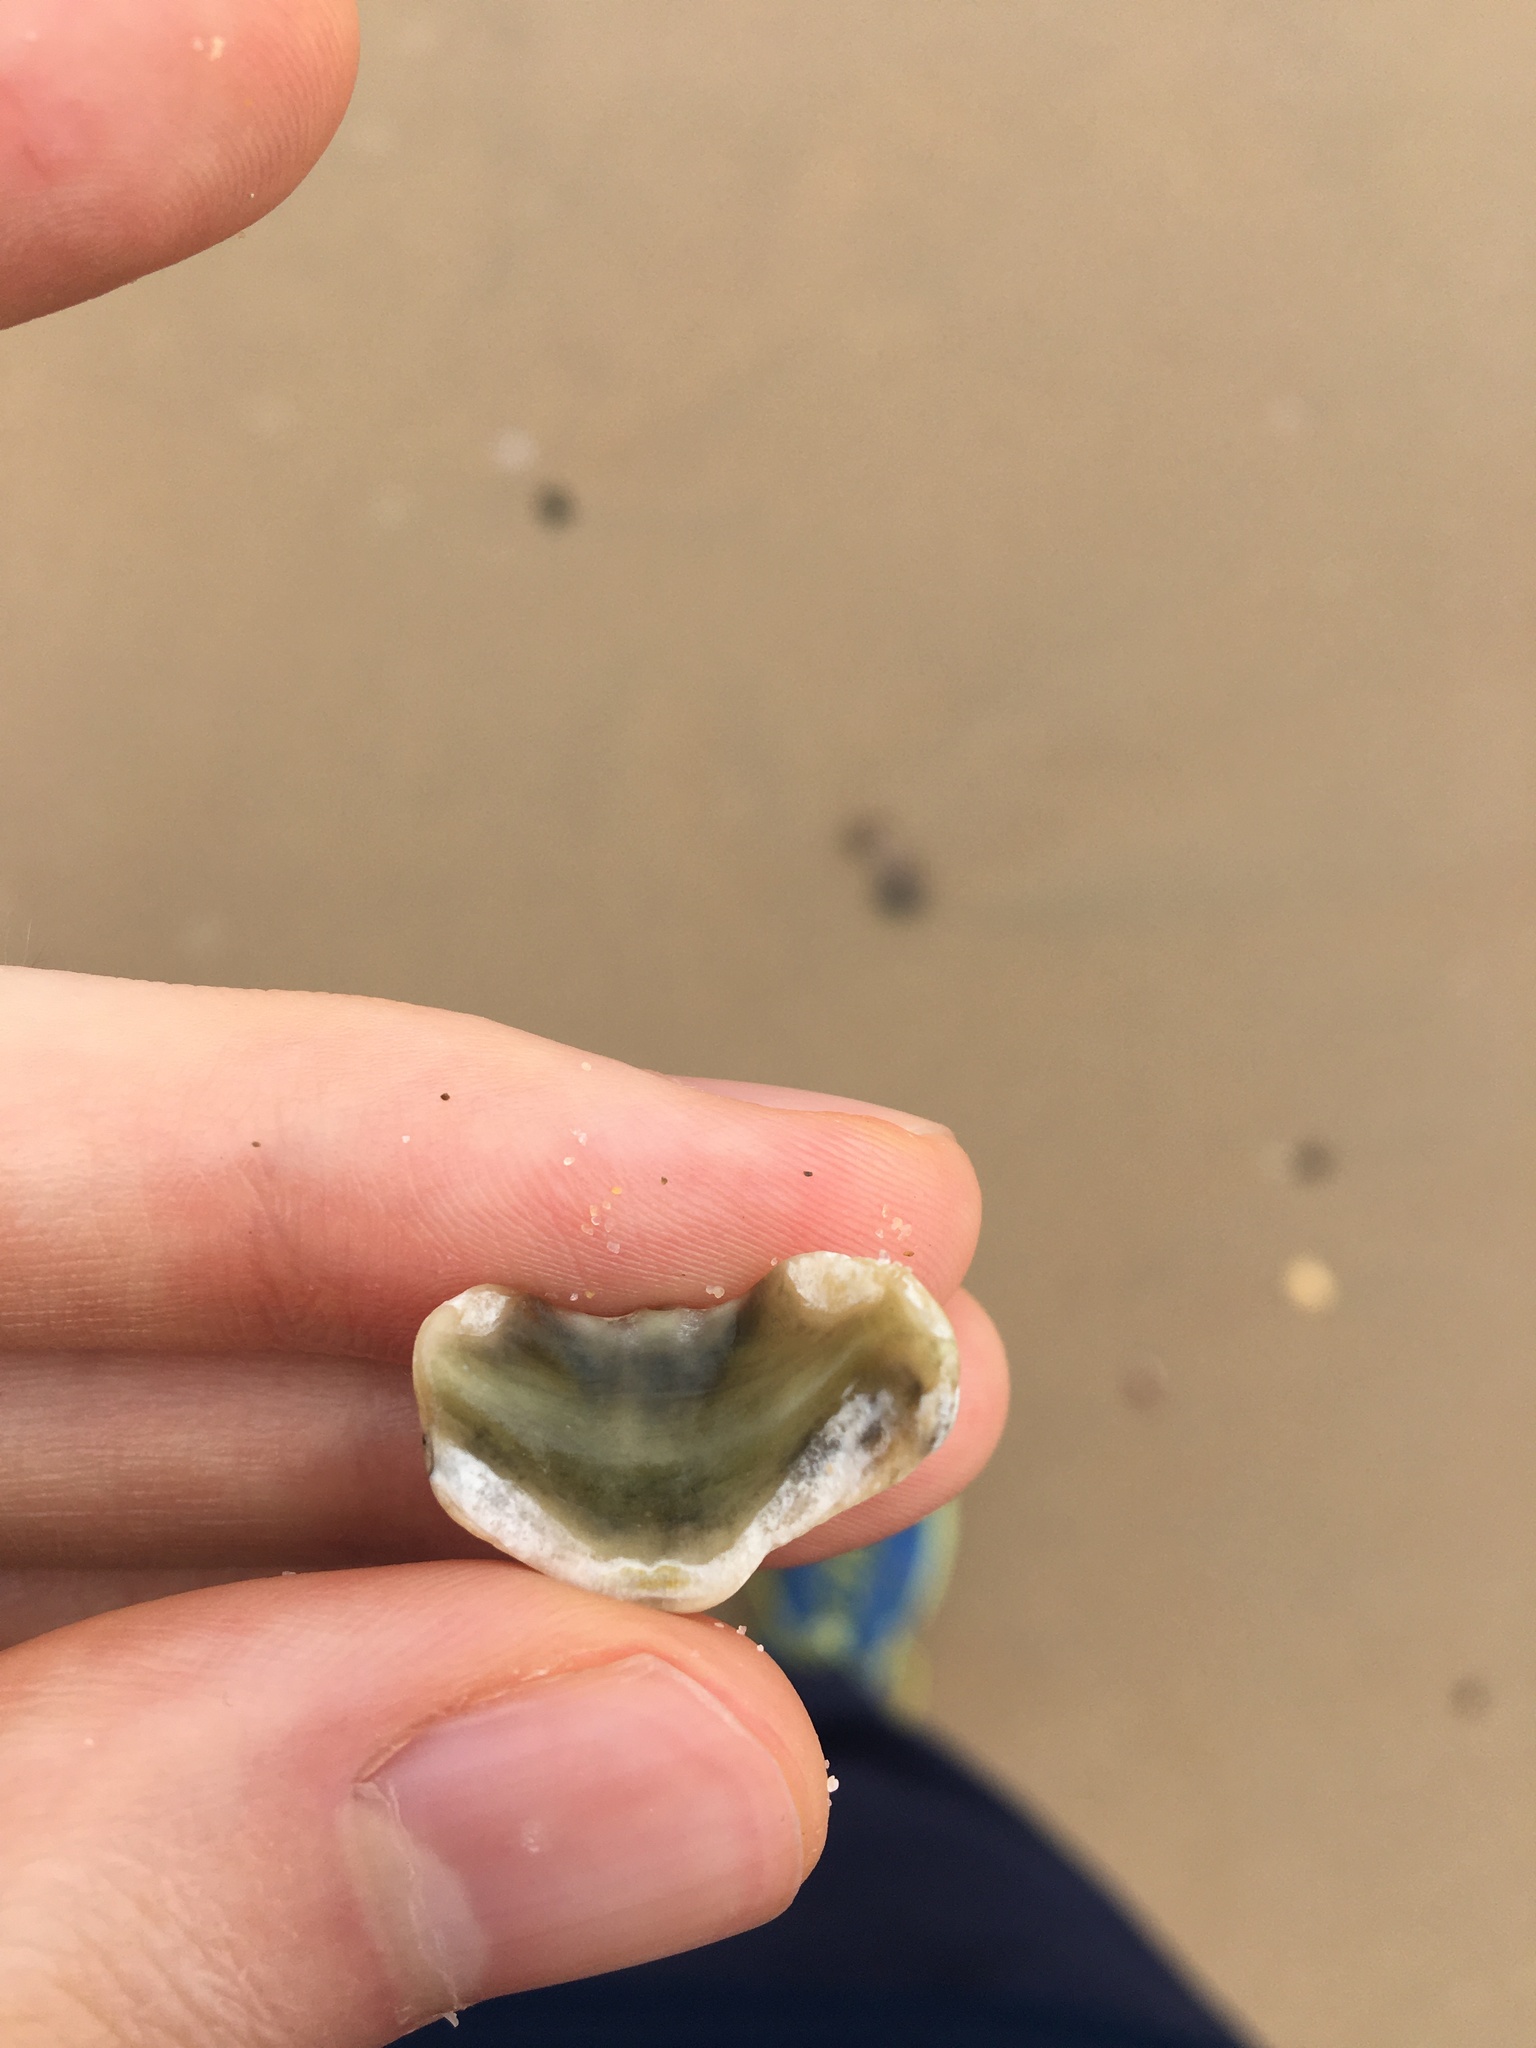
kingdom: Animalia
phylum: Mollusca
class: Polyplacophora
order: Chitonida
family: Mopaliidae
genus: Plaxiphora
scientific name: Plaxiphora albida
